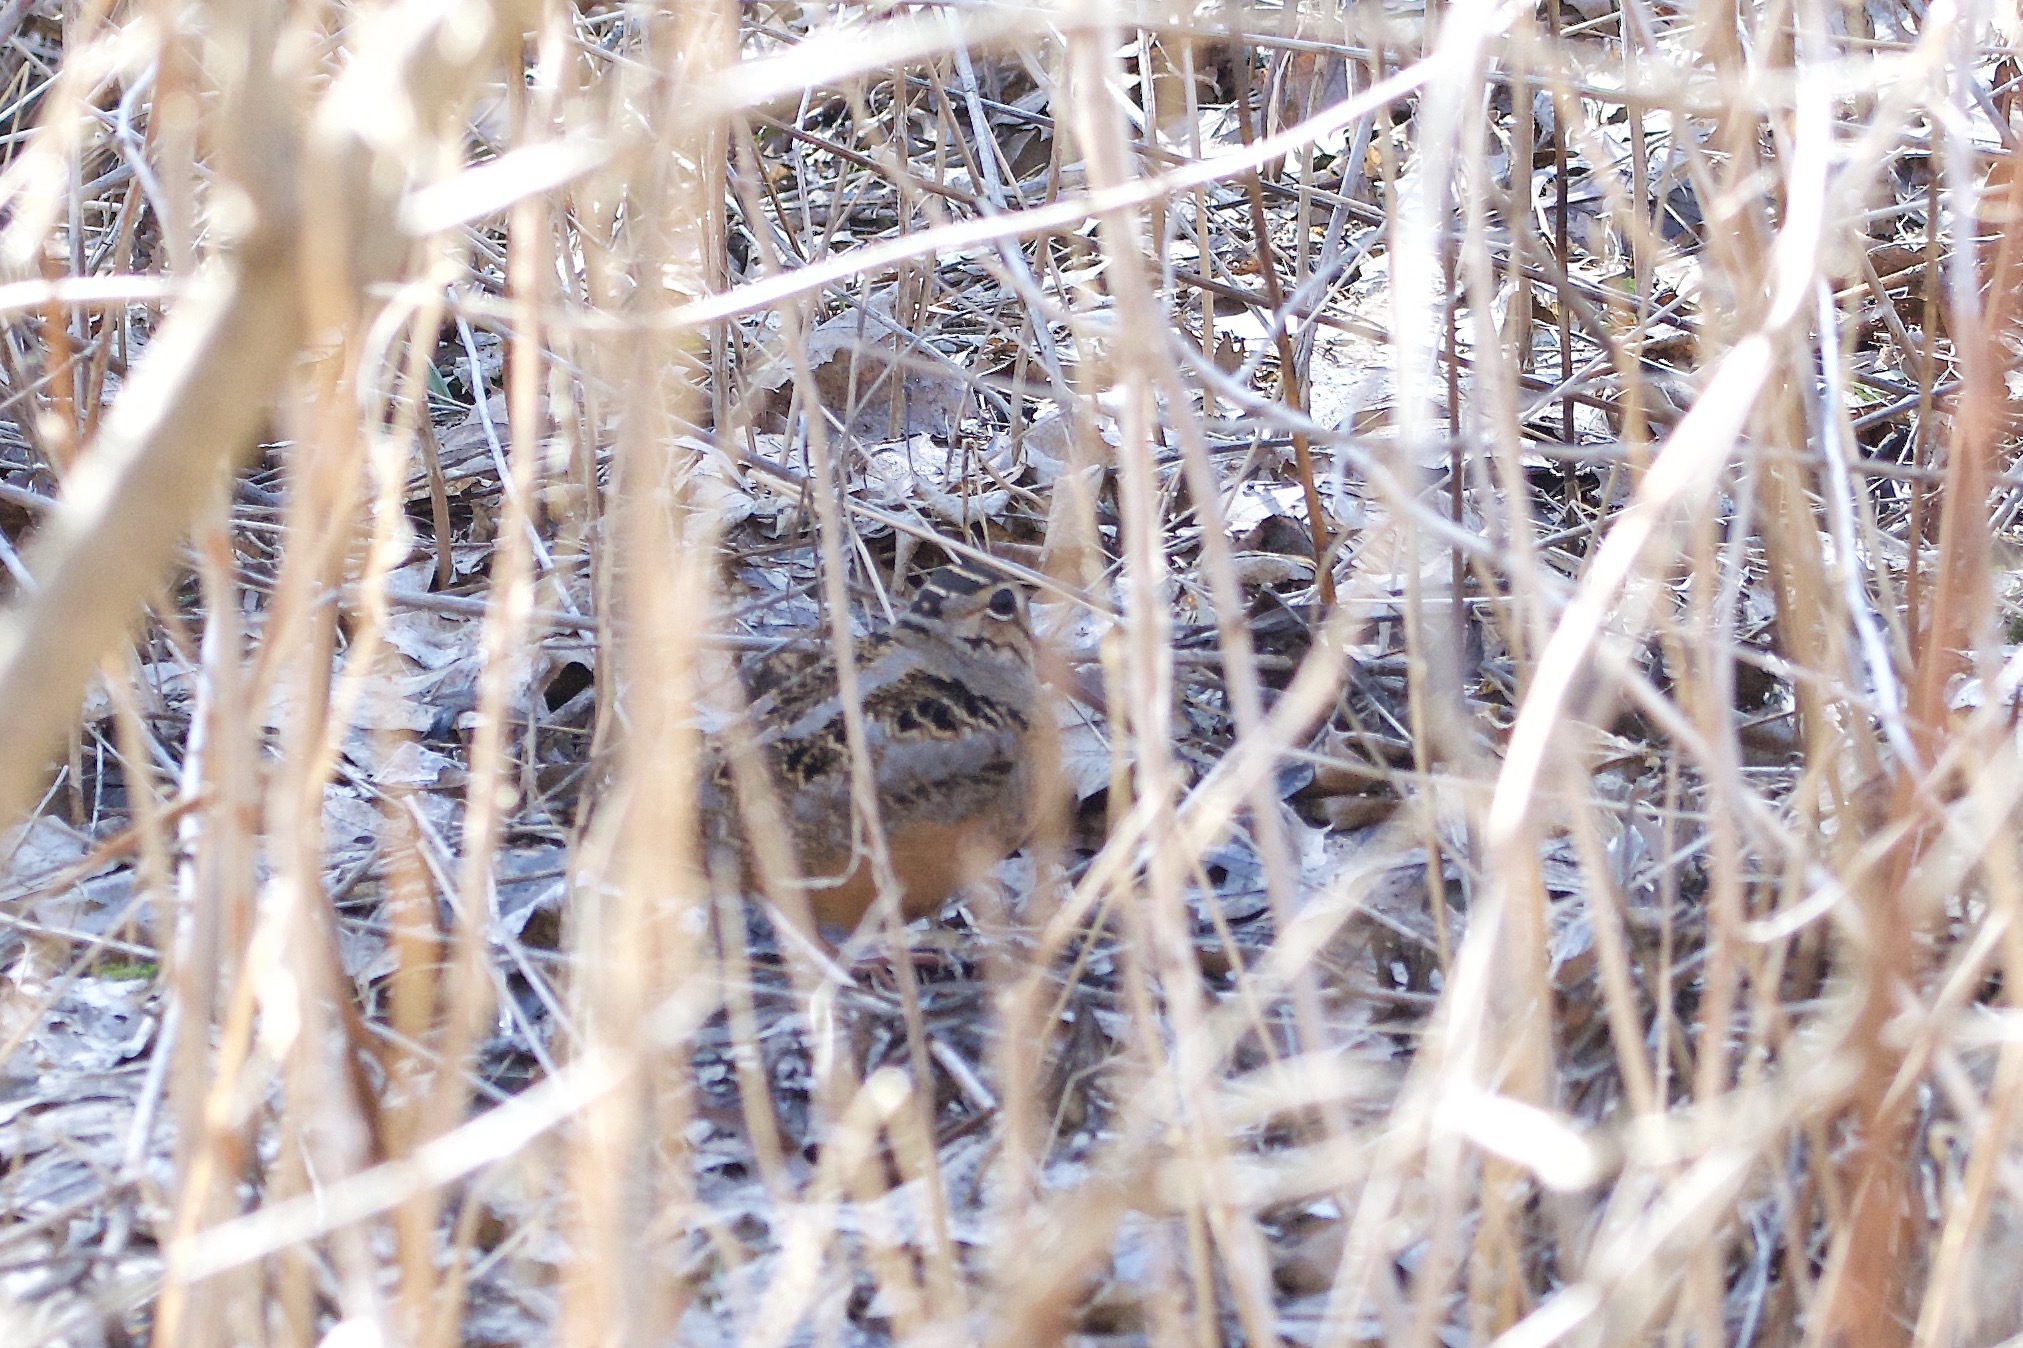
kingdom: Animalia
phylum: Chordata
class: Aves
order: Charadriiformes
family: Scolopacidae
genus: Scolopax
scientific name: Scolopax minor
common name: American woodcock
